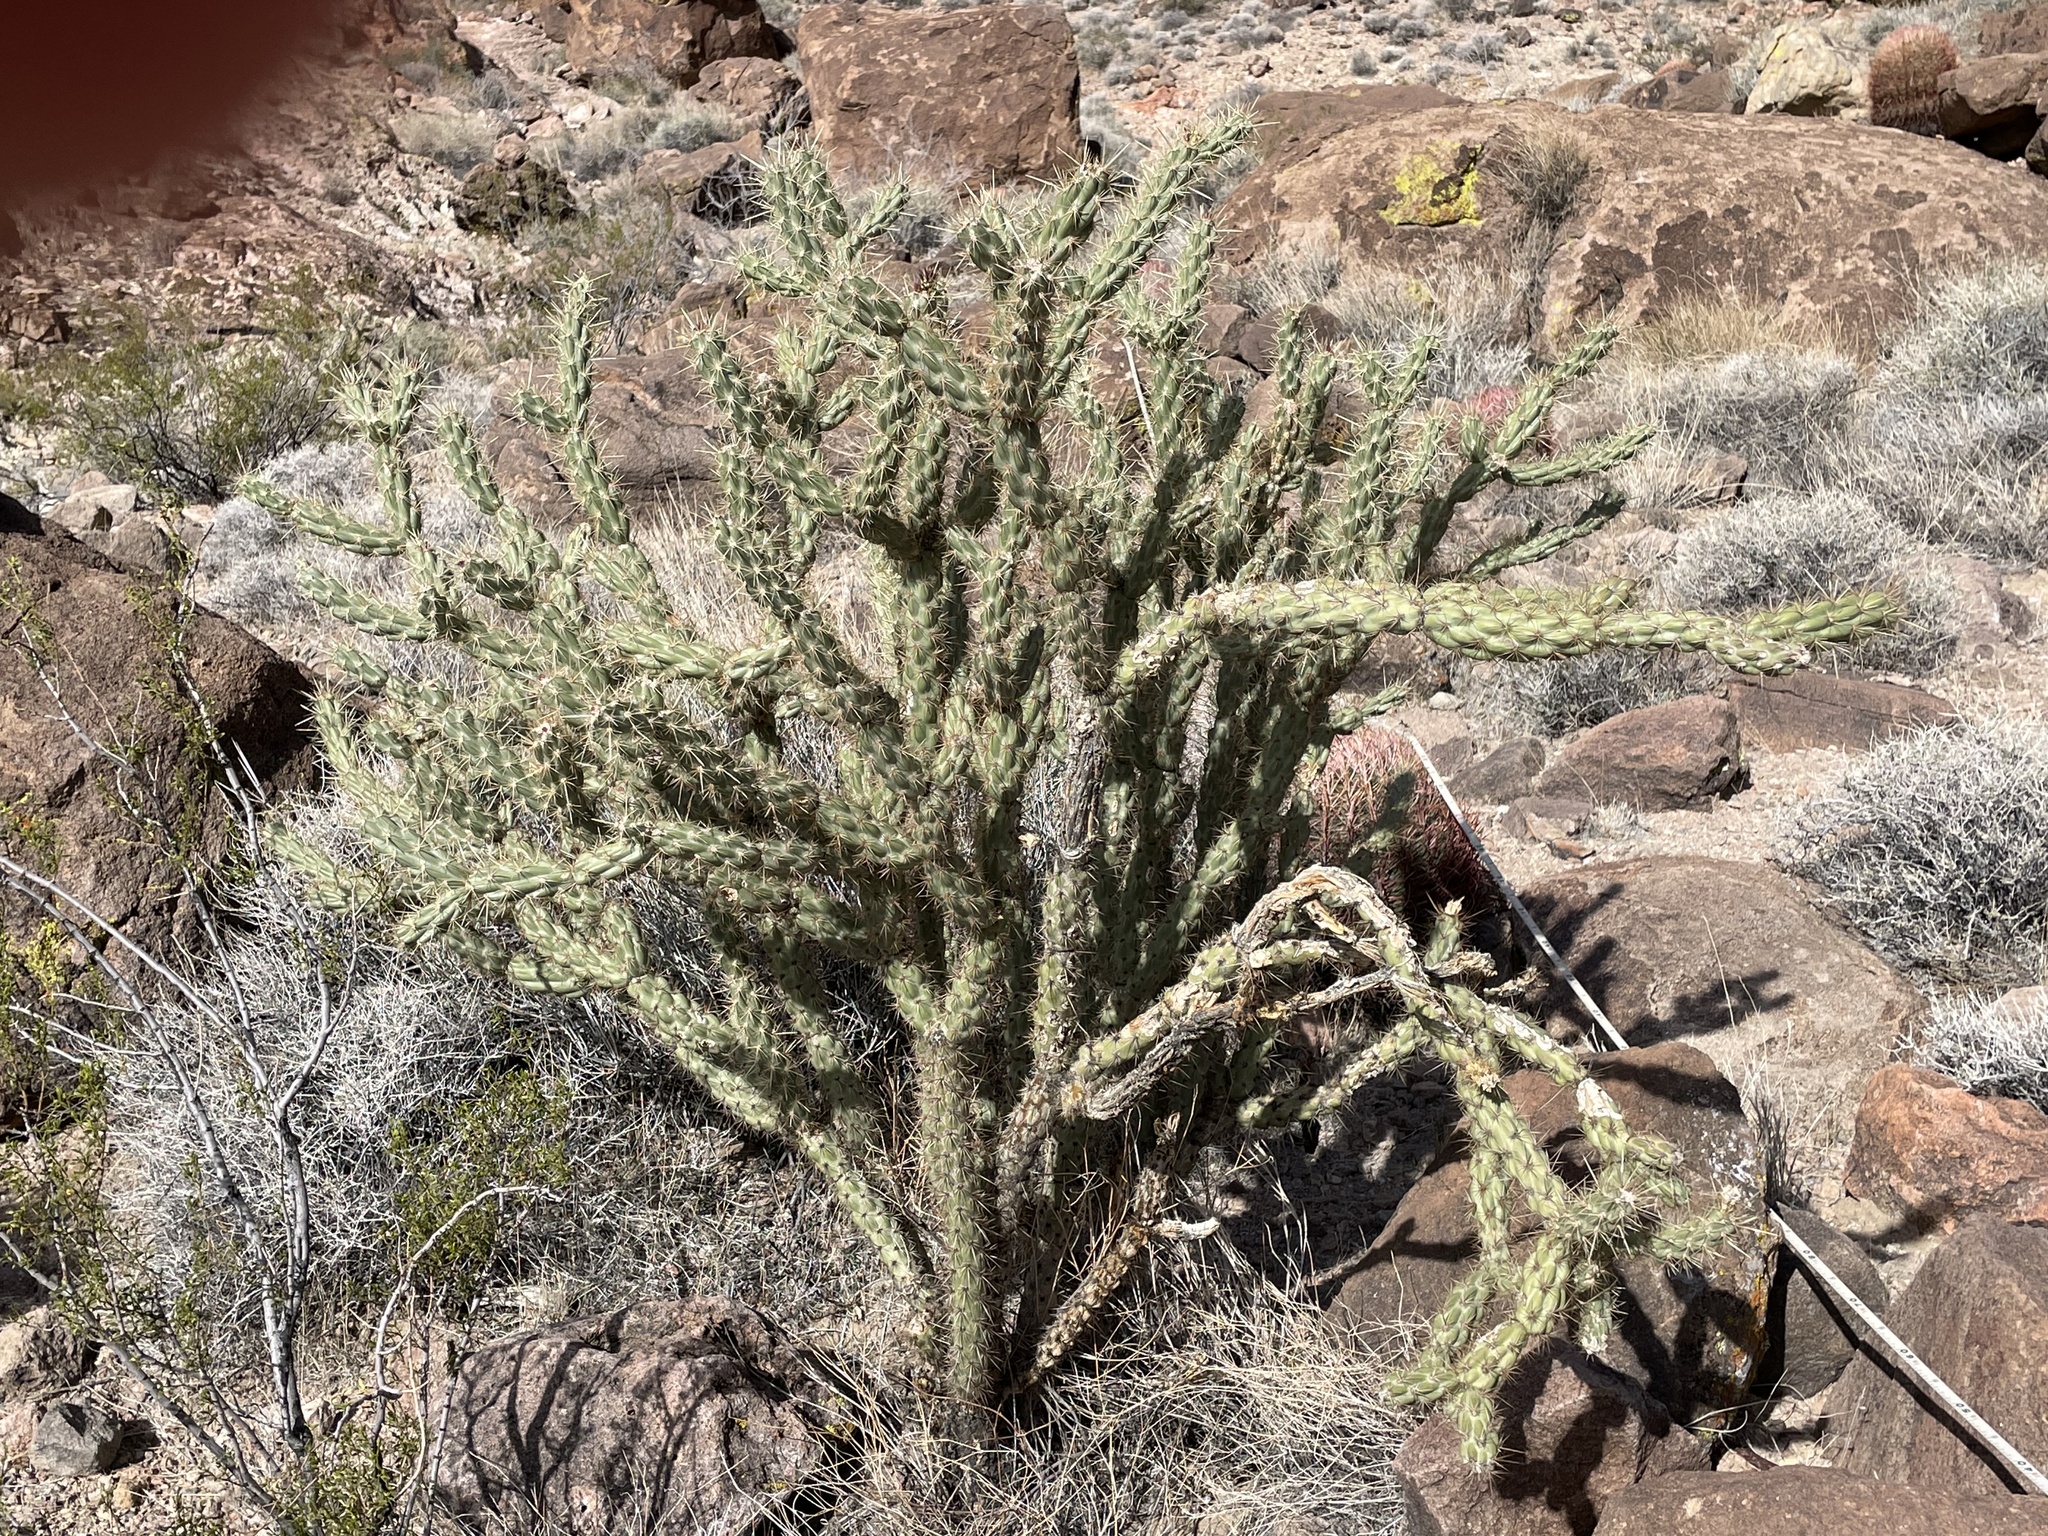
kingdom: Plantae
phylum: Tracheophyta
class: Magnoliopsida
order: Caryophyllales
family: Cactaceae
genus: Cylindropuntia
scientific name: Cylindropuntia acanthocarpa
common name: Buckhorn cholla
